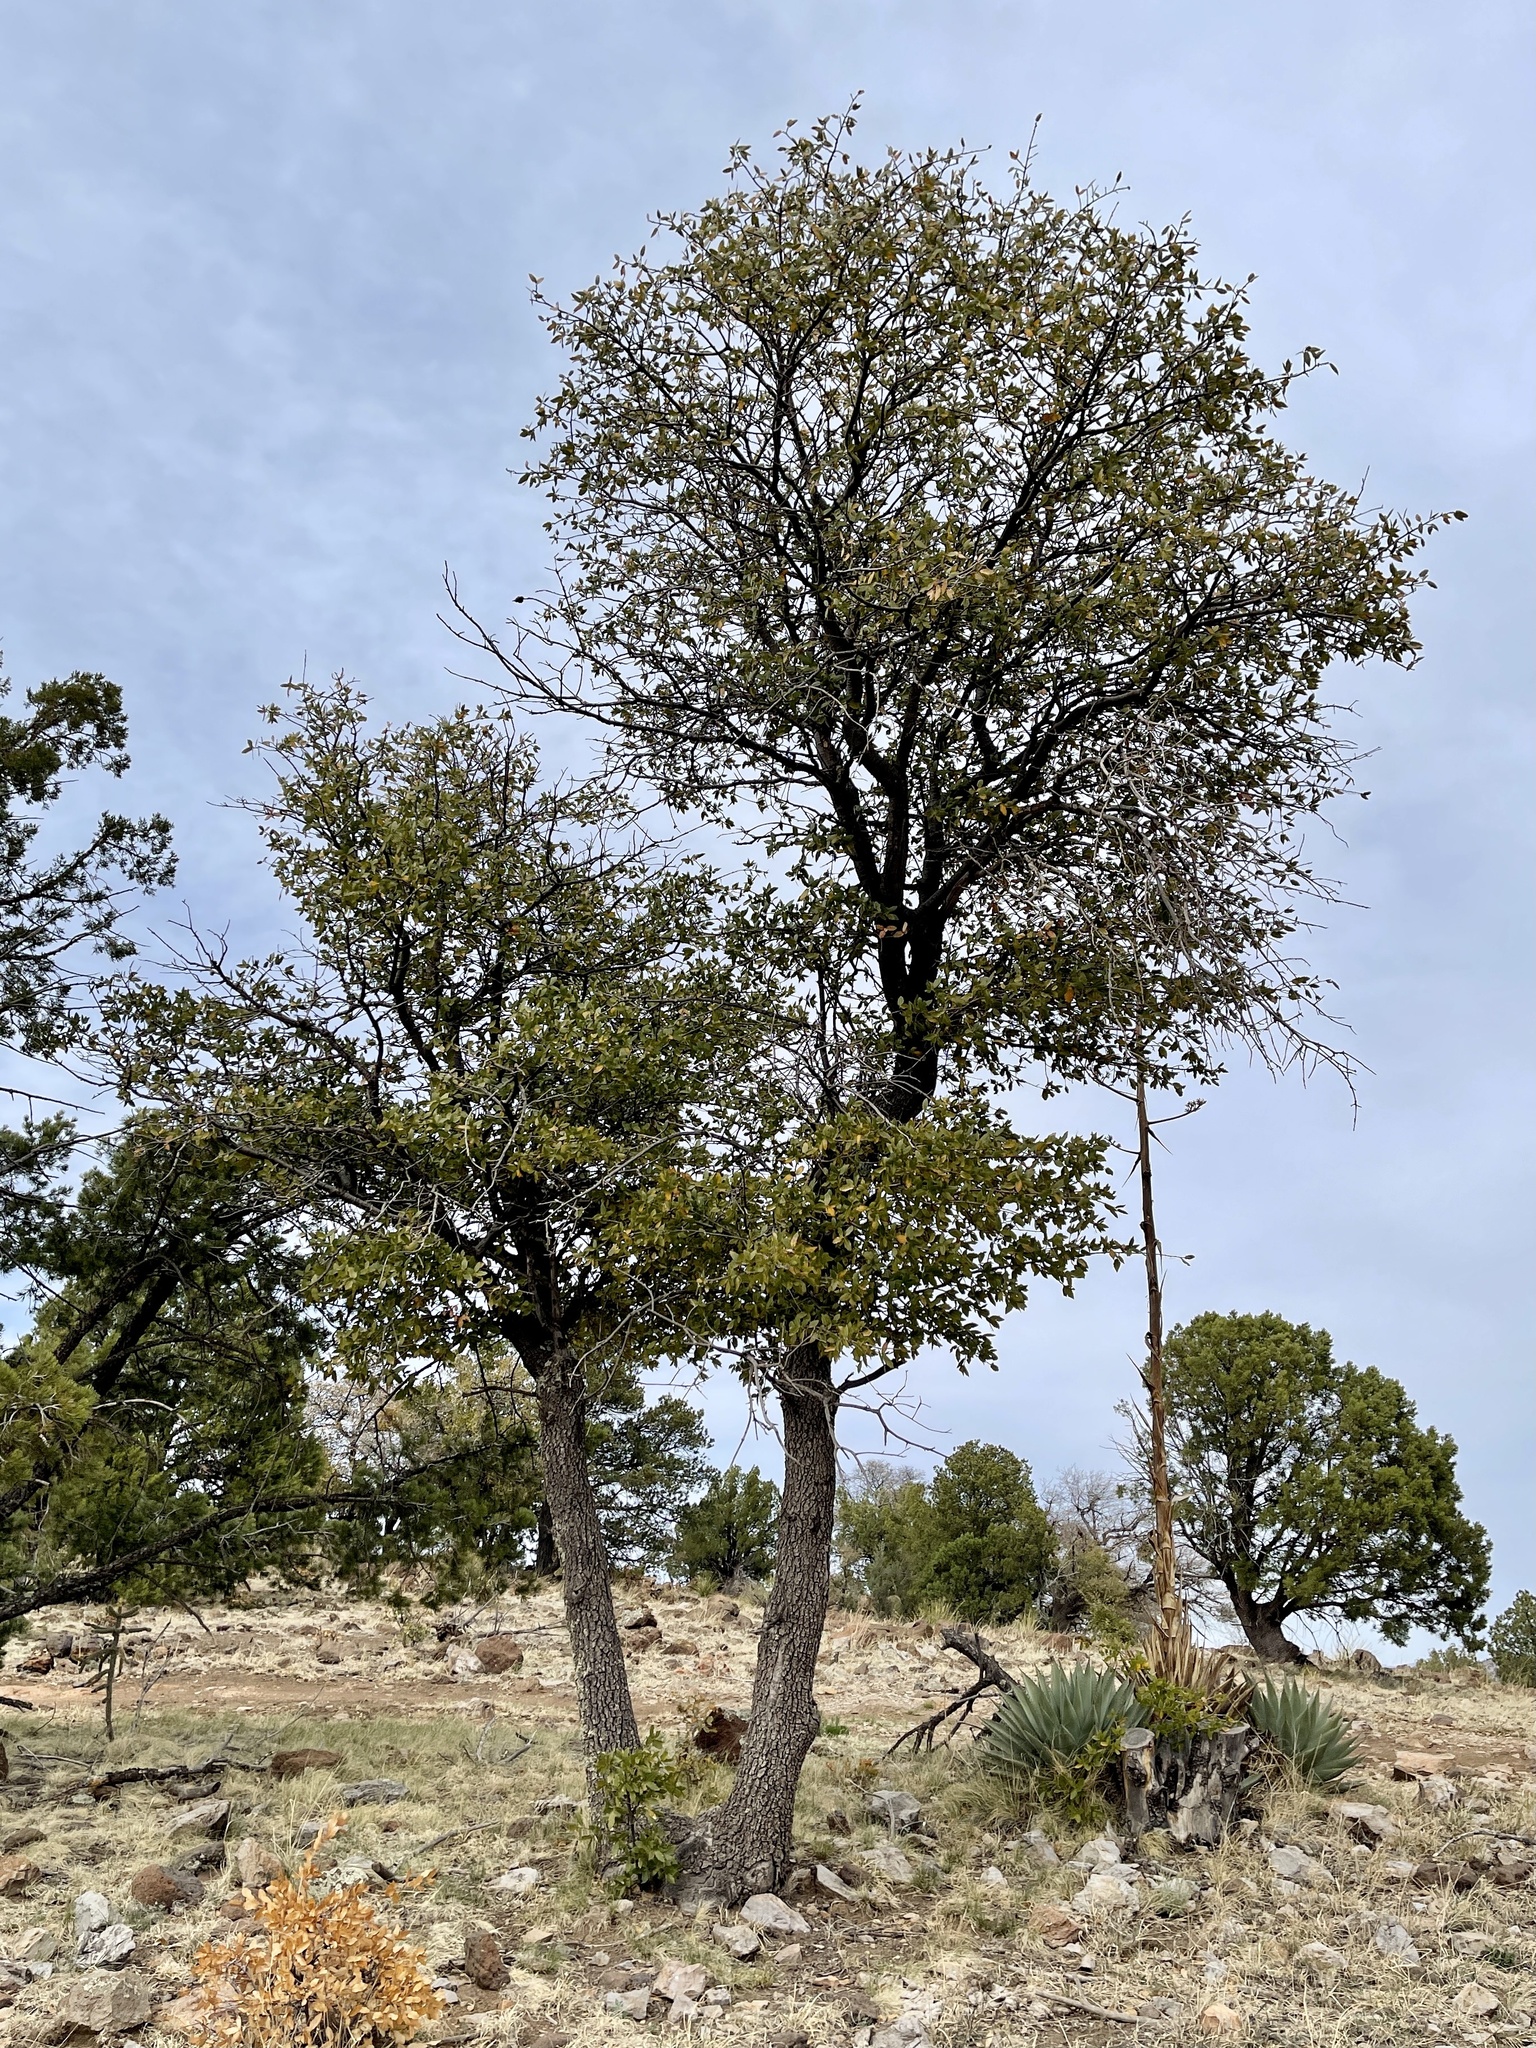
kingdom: Plantae
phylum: Tracheophyta
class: Magnoliopsida
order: Fagales
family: Fagaceae
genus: Quercus
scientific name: Quercus arizonica
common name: Arizona white oak
